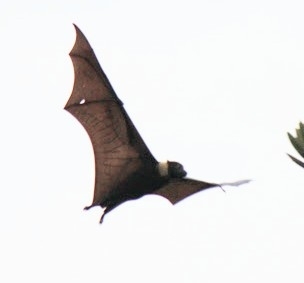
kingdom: Animalia
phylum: Chordata
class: Mammalia
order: Chiroptera
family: Pteropodidae
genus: Pteropus
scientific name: Pteropus tonganus
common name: Pacific flying fox
